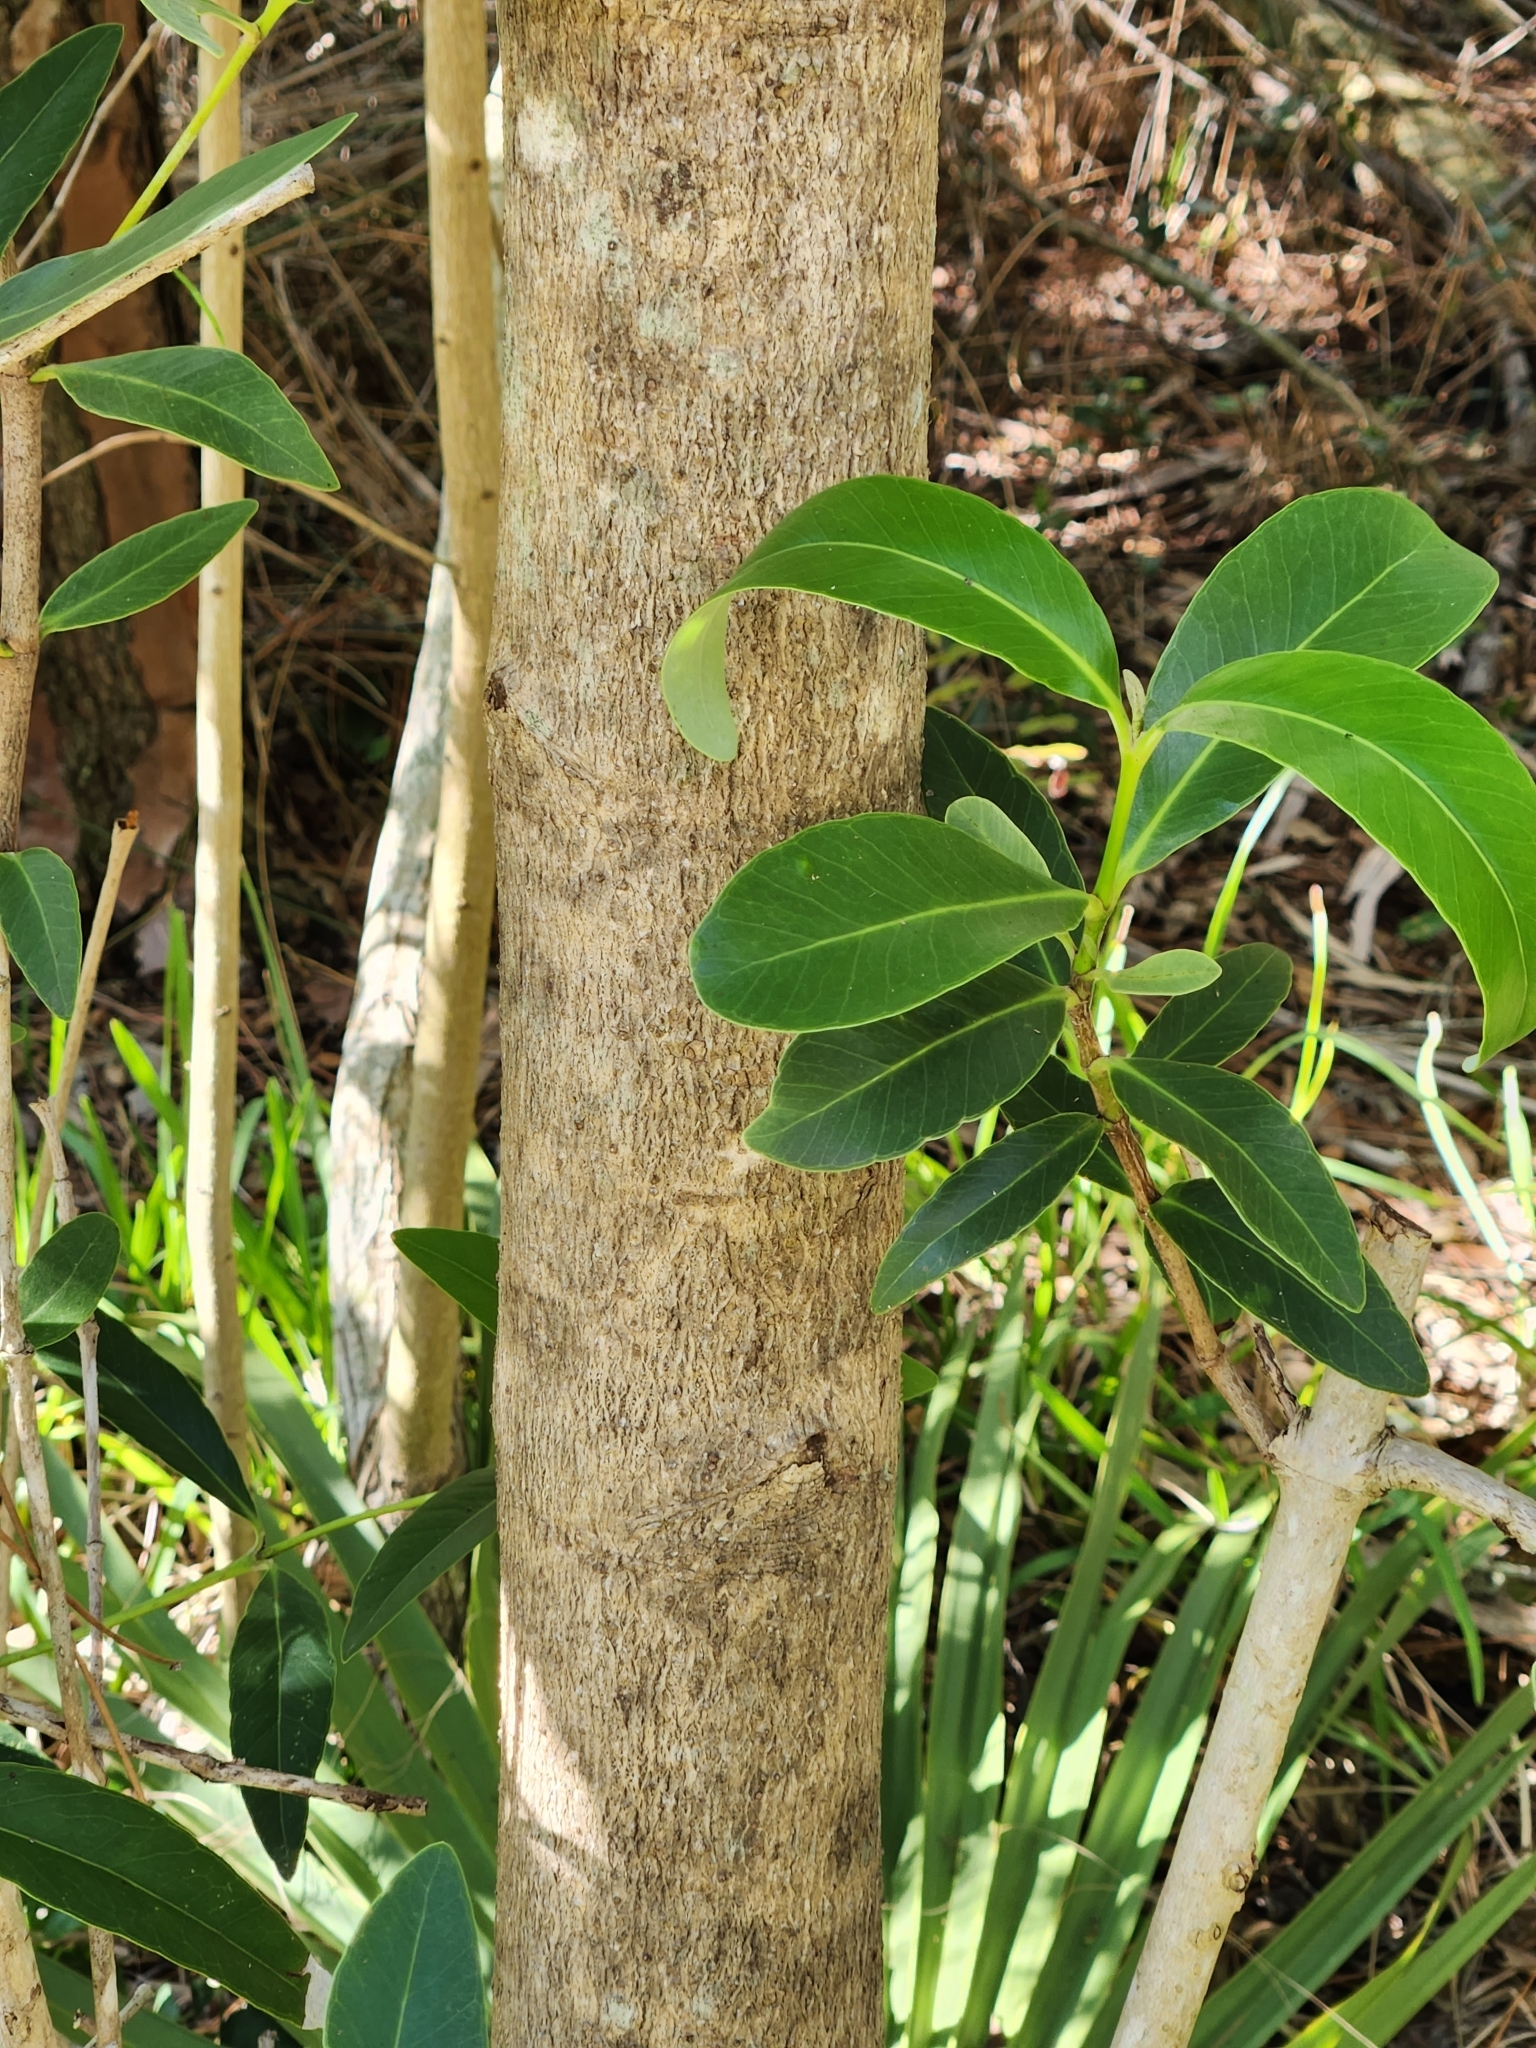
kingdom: Plantae
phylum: Tracheophyta
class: Magnoliopsida
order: Lamiales
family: Acanthaceae
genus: Avicennia
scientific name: Avicennia germinans
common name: Black mangrove
